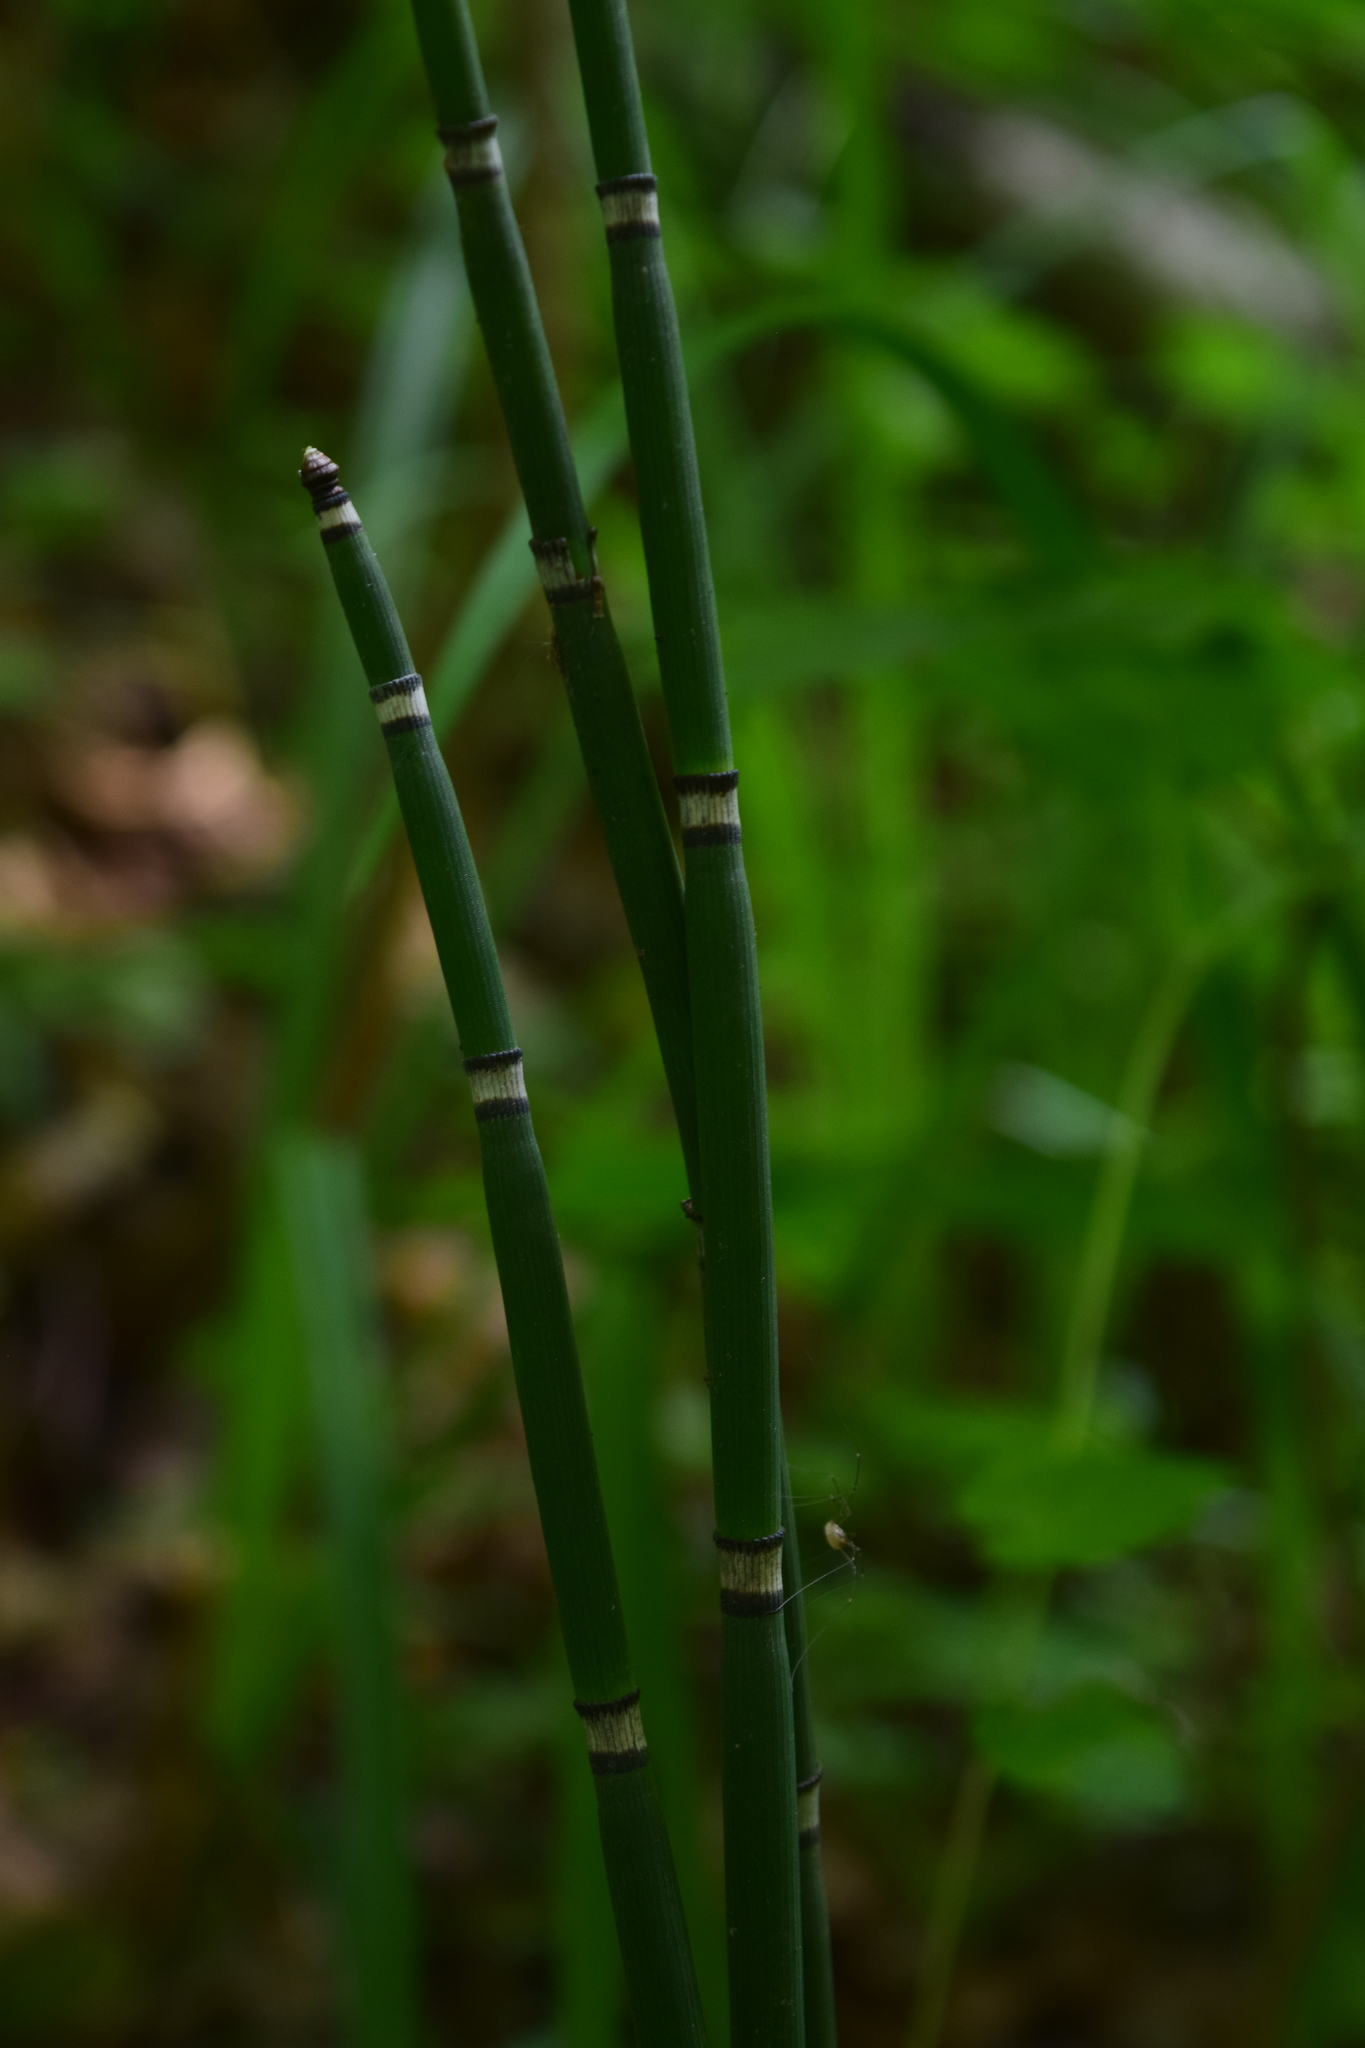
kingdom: Plantae
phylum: Tracheophyta
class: Polypodiopsida
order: Equisetales
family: Equisetaceae
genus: Equisetum
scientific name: Equisetum hyemale
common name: Rough horsetail
